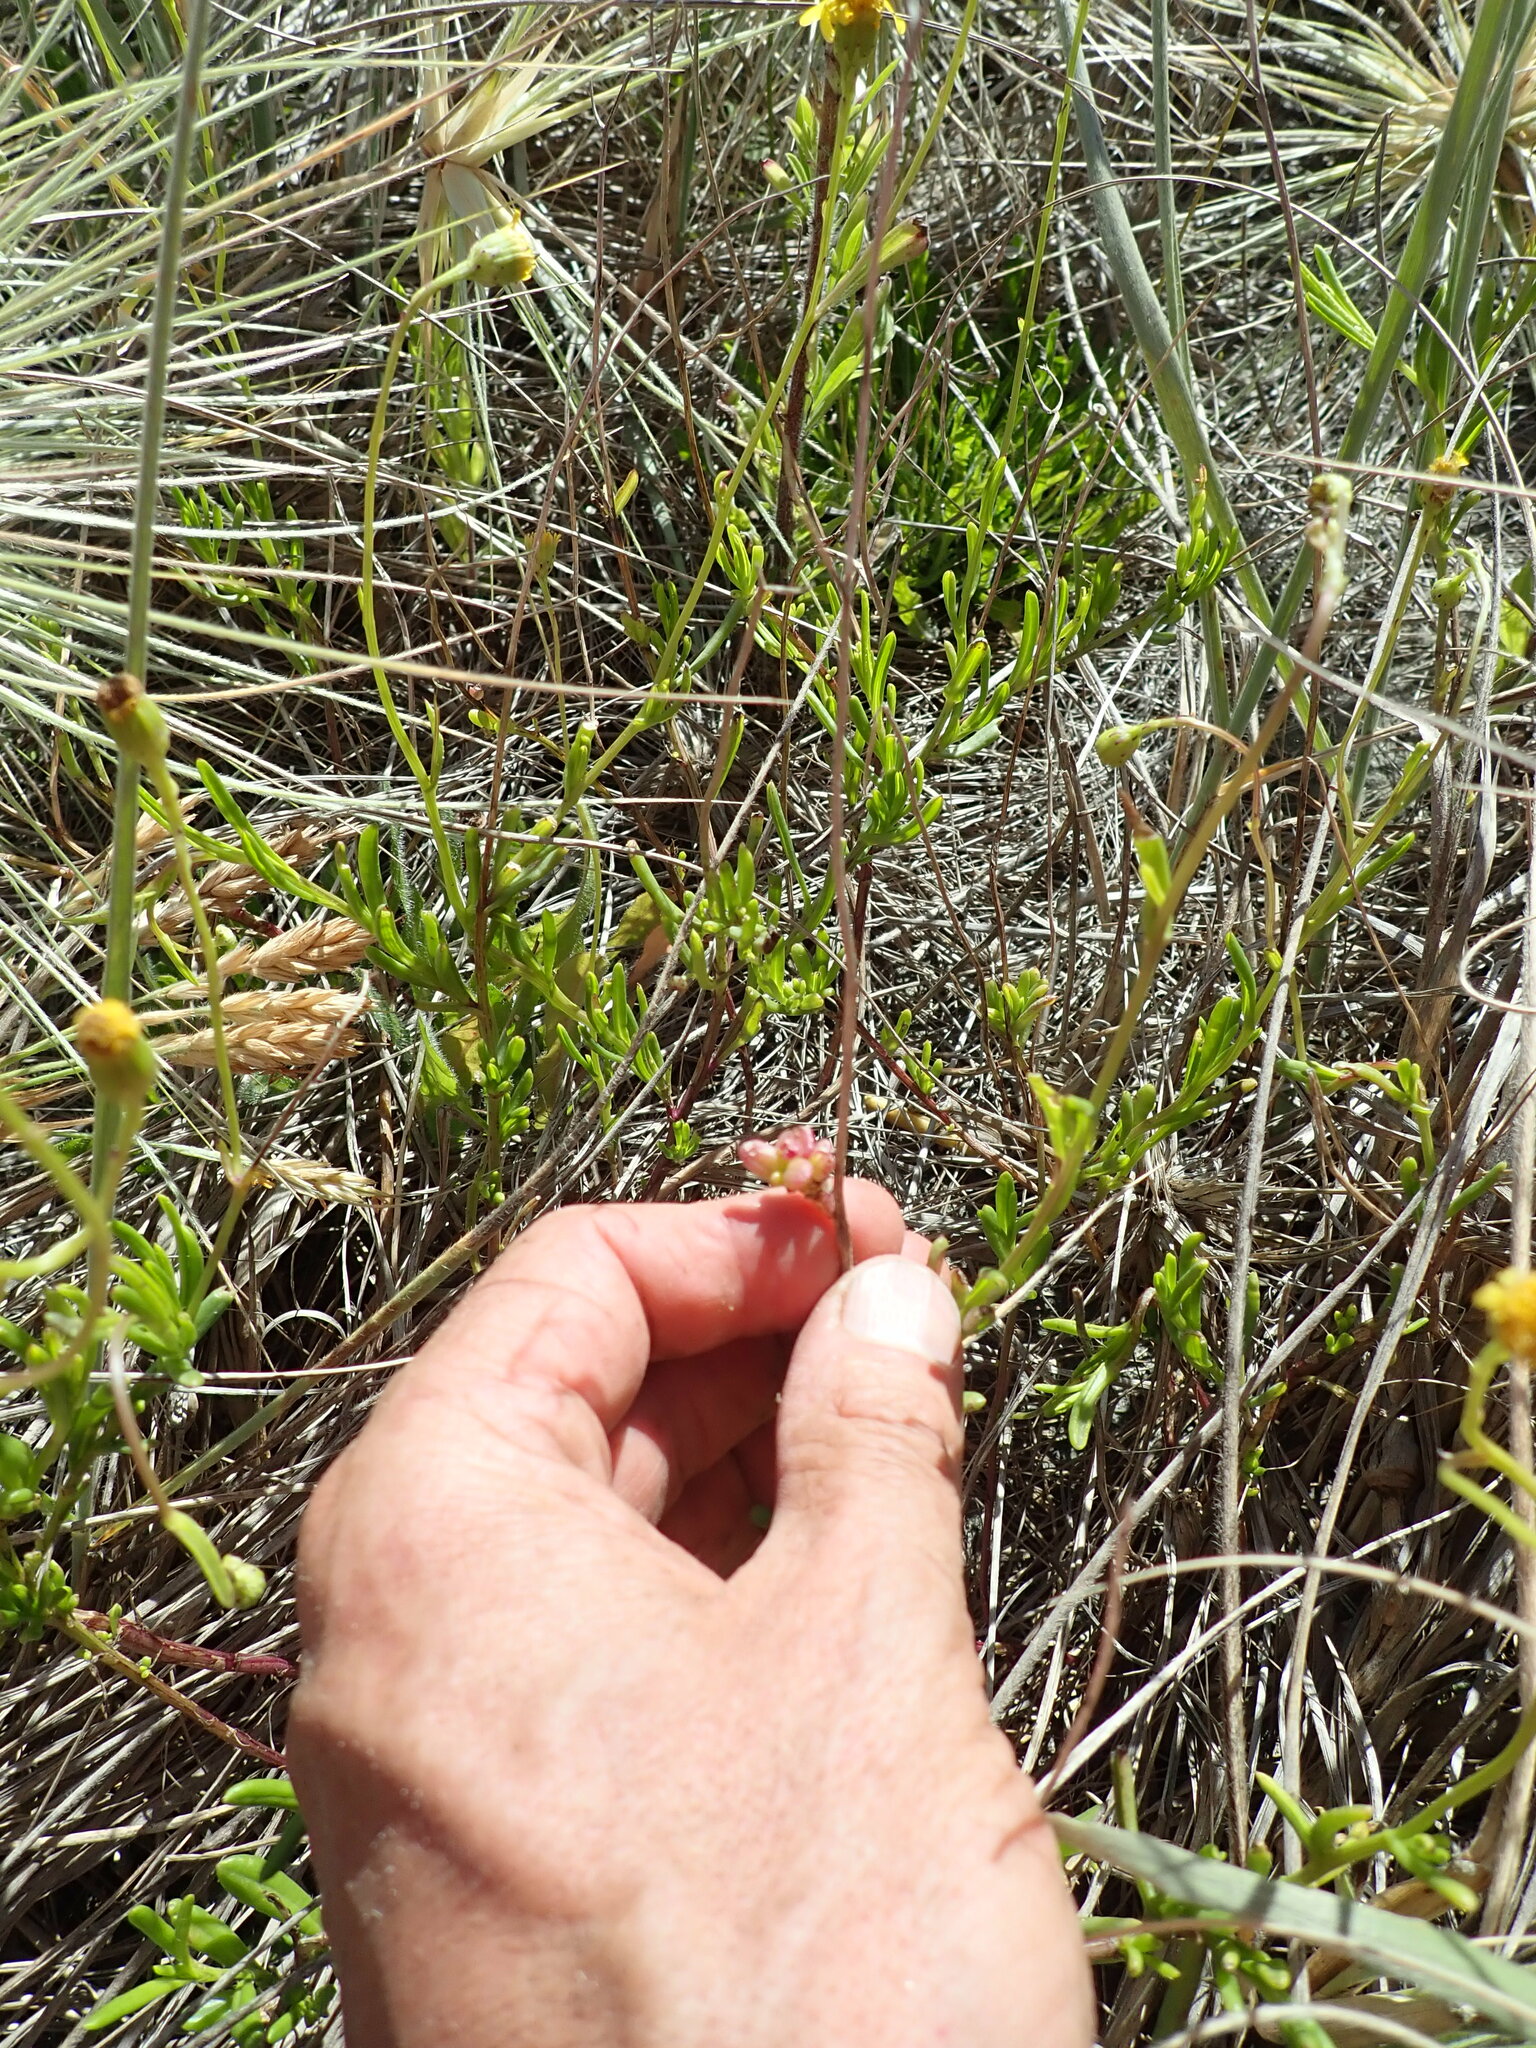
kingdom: Plantae
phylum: Tracheophyta
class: Magnoliopsida
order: Asterales
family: Asteraceae
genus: Senecio
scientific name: Senecio skirrhodon
